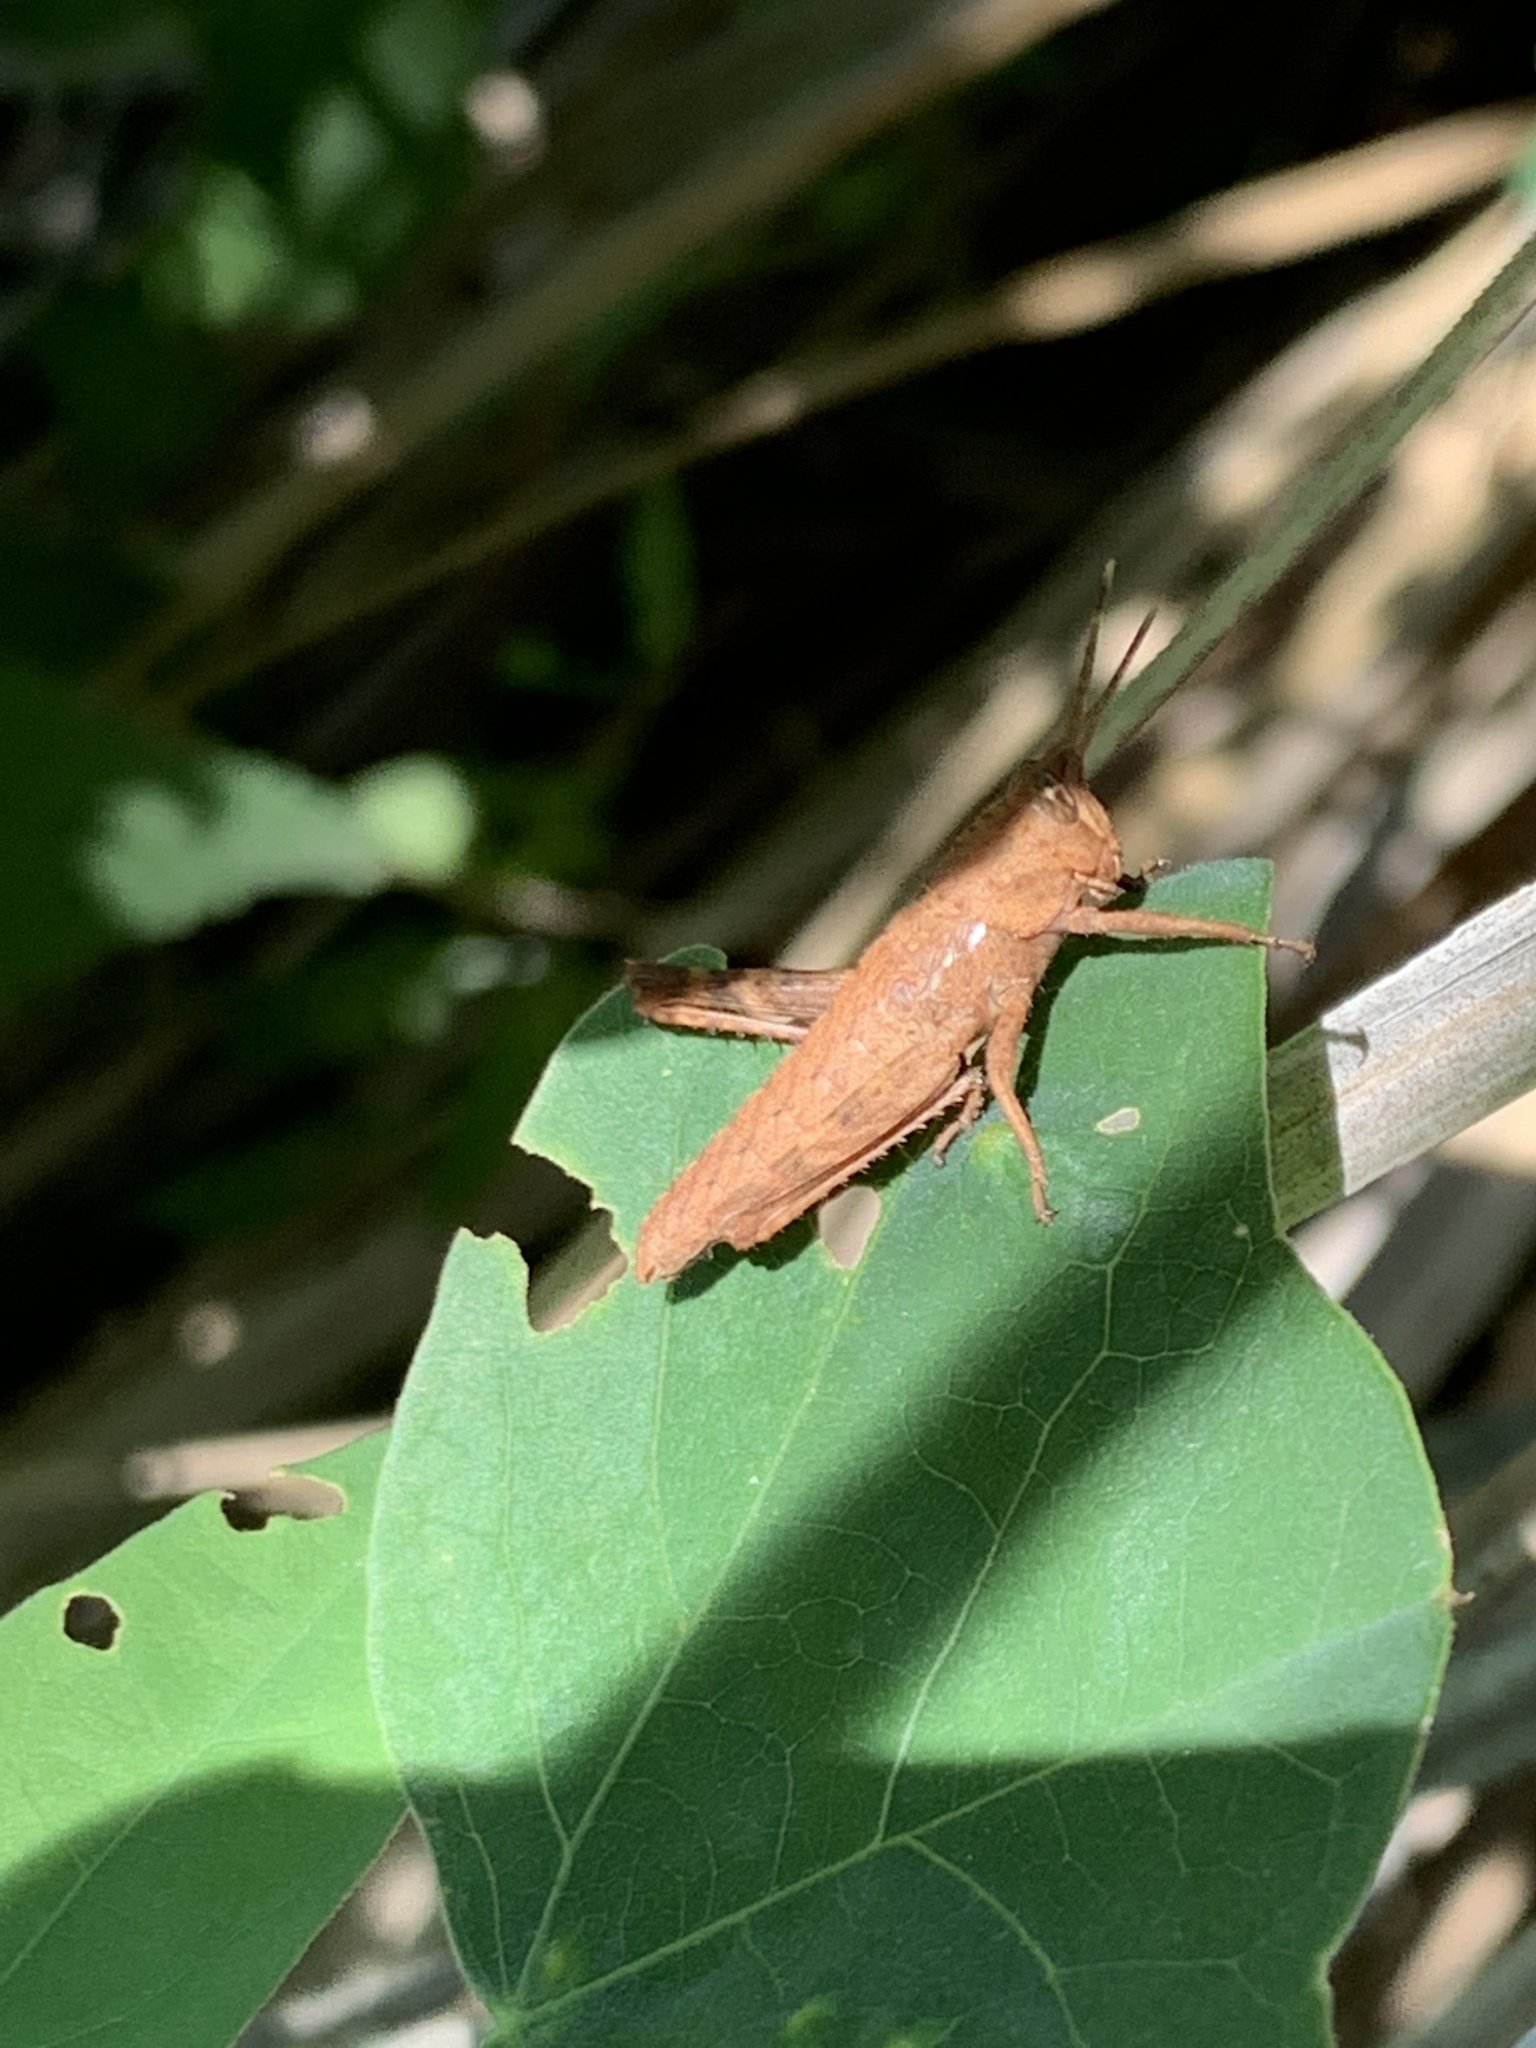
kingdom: Animalia
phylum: Arthropoda
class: Insecta
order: Orthoptera
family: Romaleidae
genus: Coryacris
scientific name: Coryacris angustipennis
